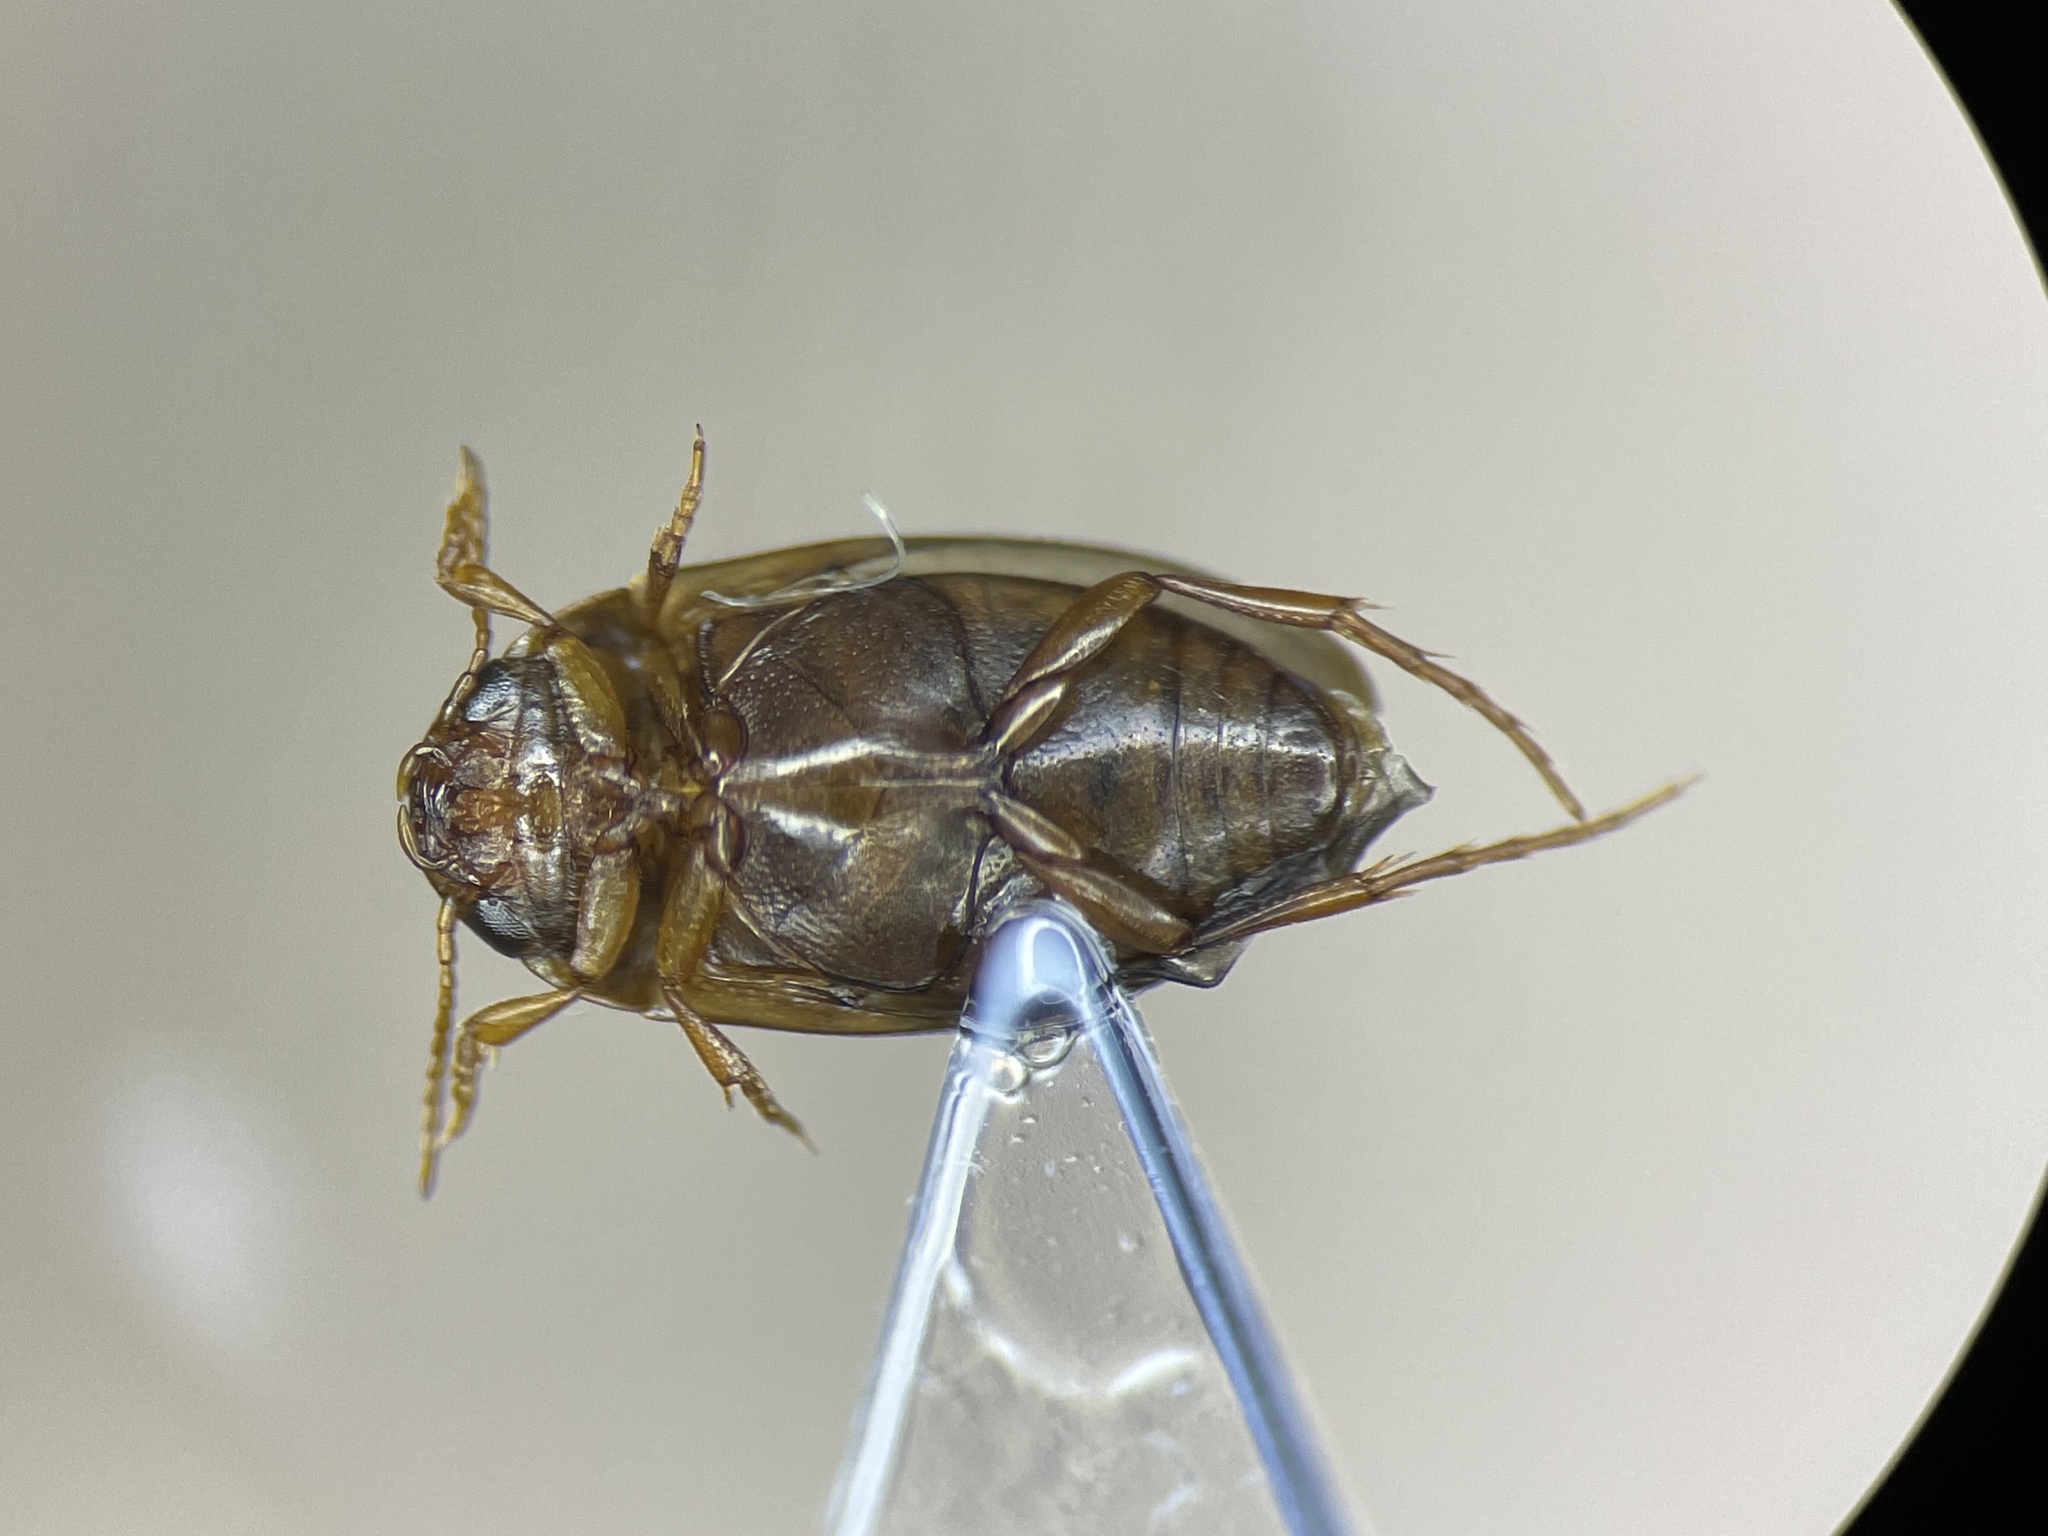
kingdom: Animalia
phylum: Arthropoda
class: Insecta
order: Coleoptera
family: Dytiscidae
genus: Sanfilippodytes
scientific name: Sanfilippodytes pseudovilis
